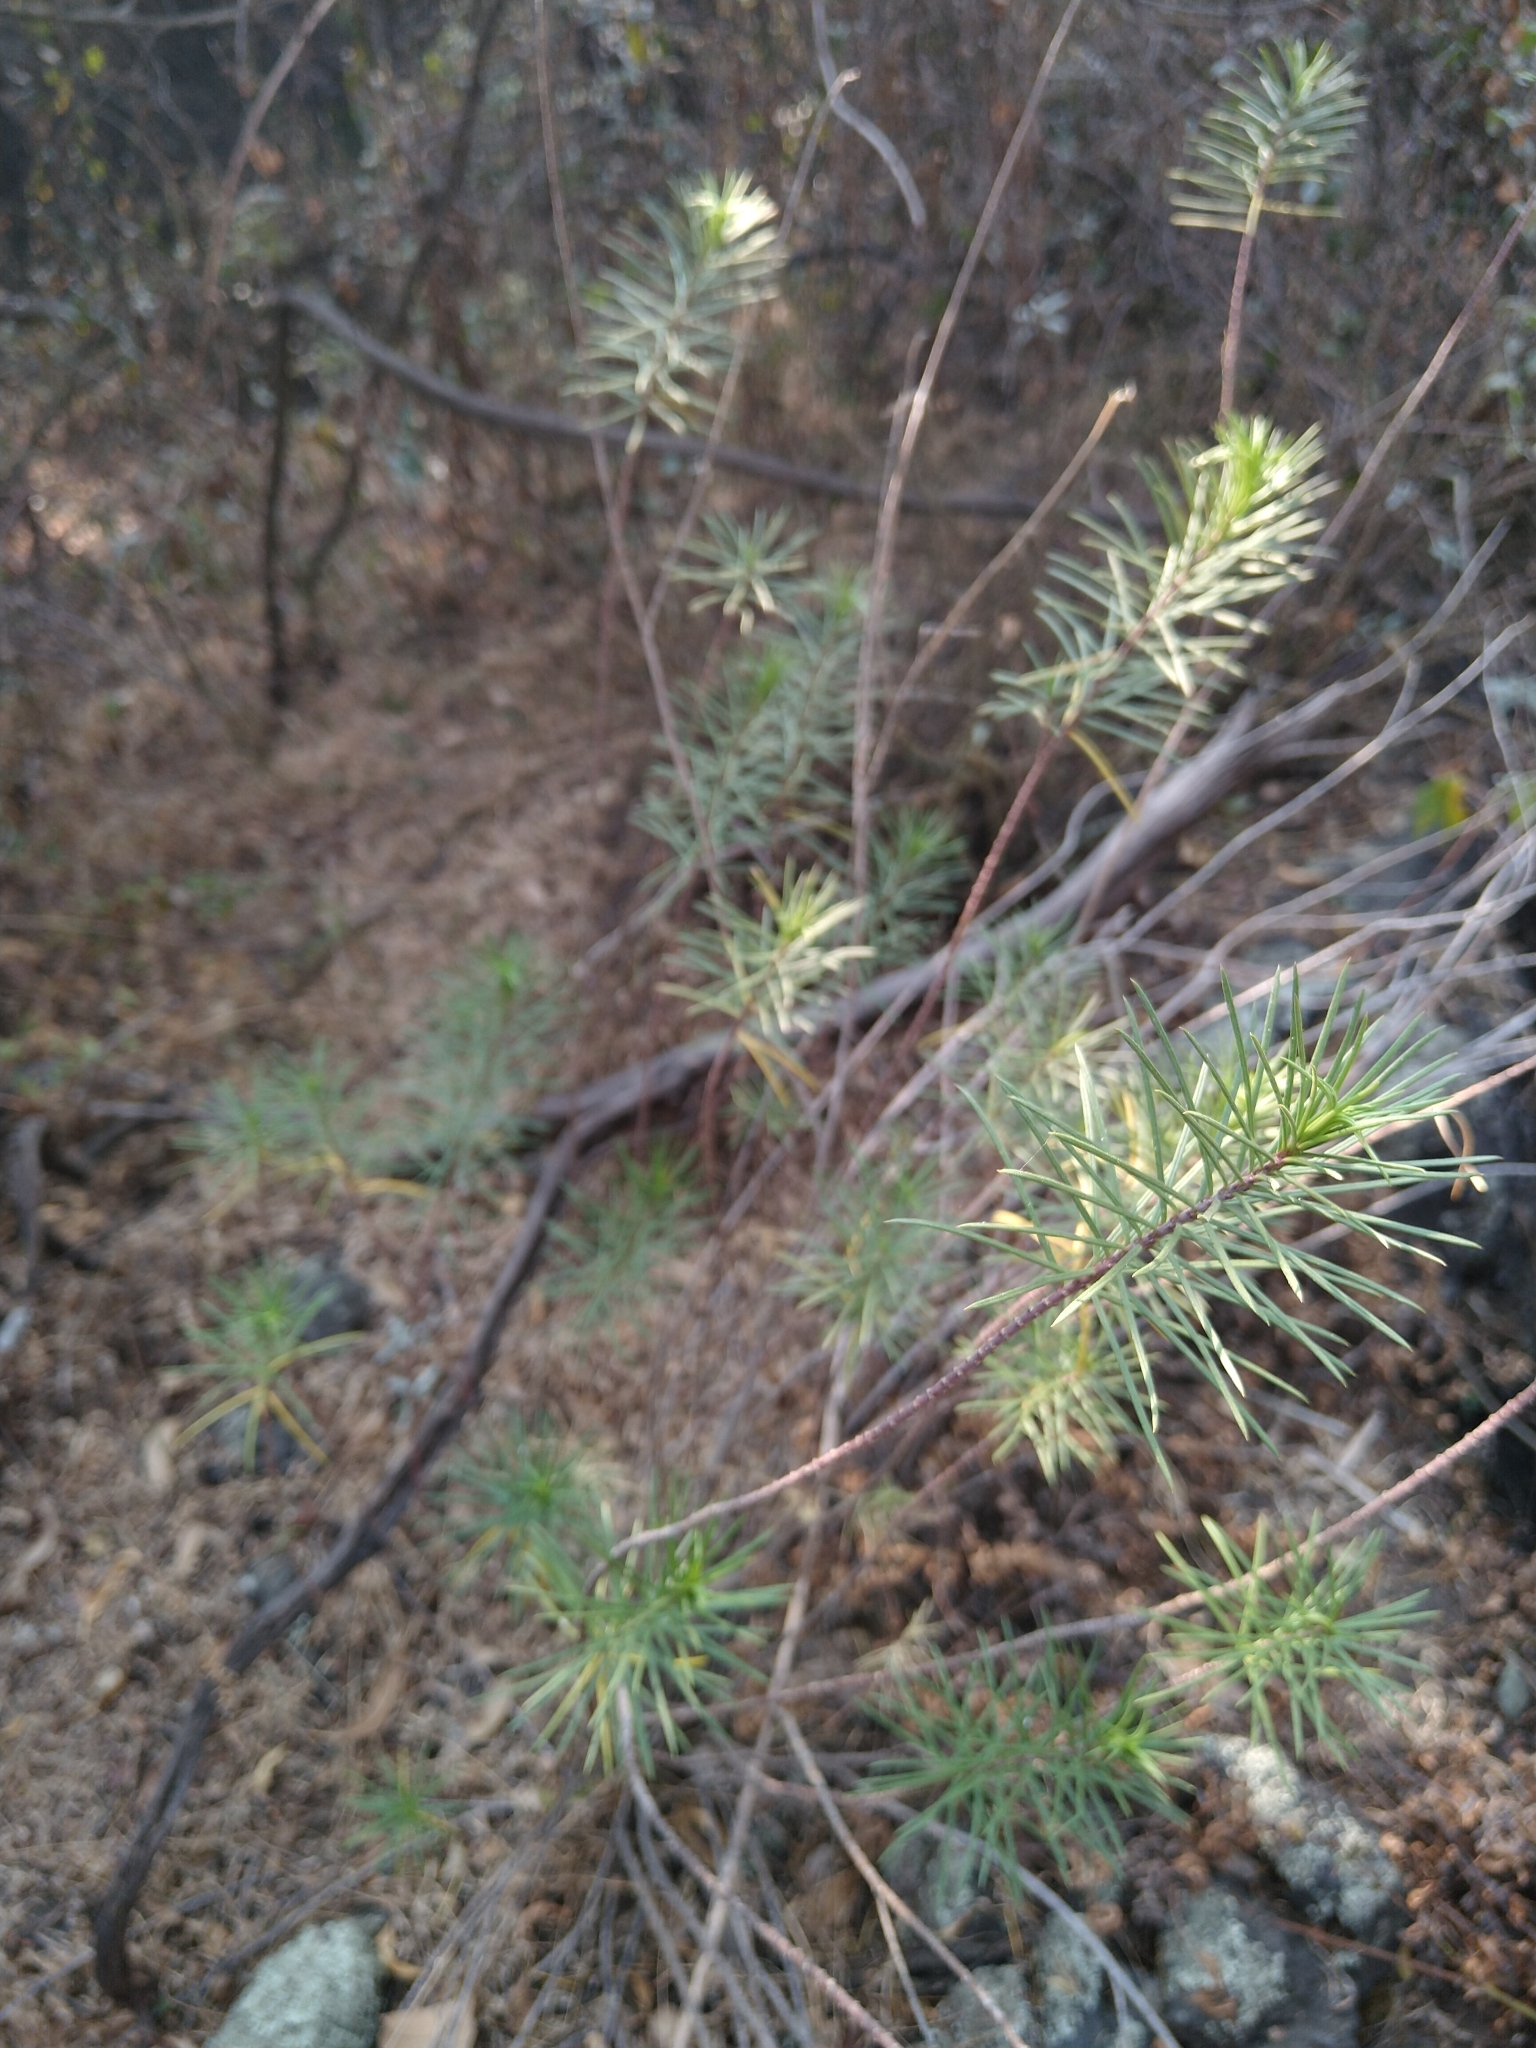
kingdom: Plantae
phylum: Tracheophyta
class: Magnoliopsida
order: Gentianales
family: Apocynaceae
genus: Asclepias
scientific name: Asclepias linaria
